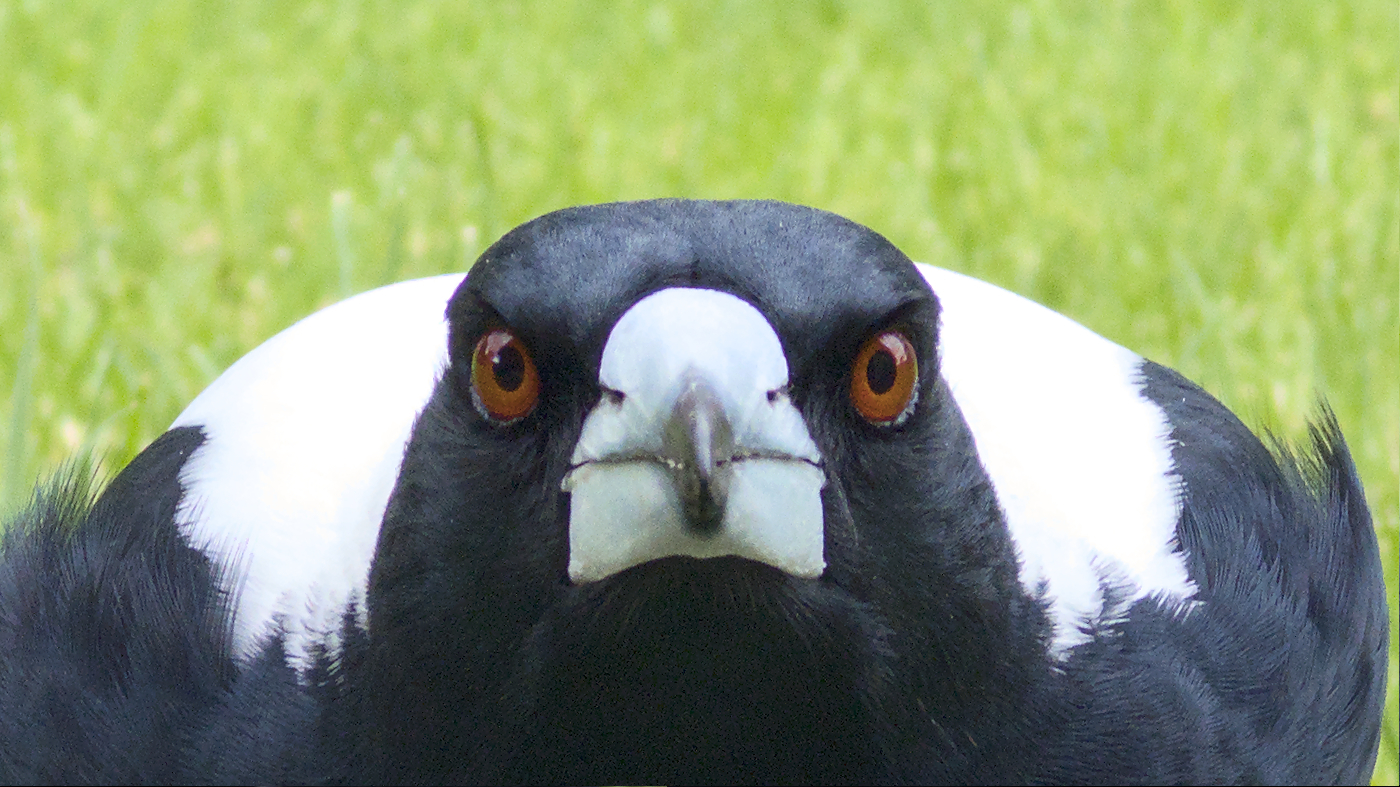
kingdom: Animalia
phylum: Chordata
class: Aves
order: Passeriformes
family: Cracticidae
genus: Gymnorhina
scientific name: Gymnorhina tibicen
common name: Australian magpie
